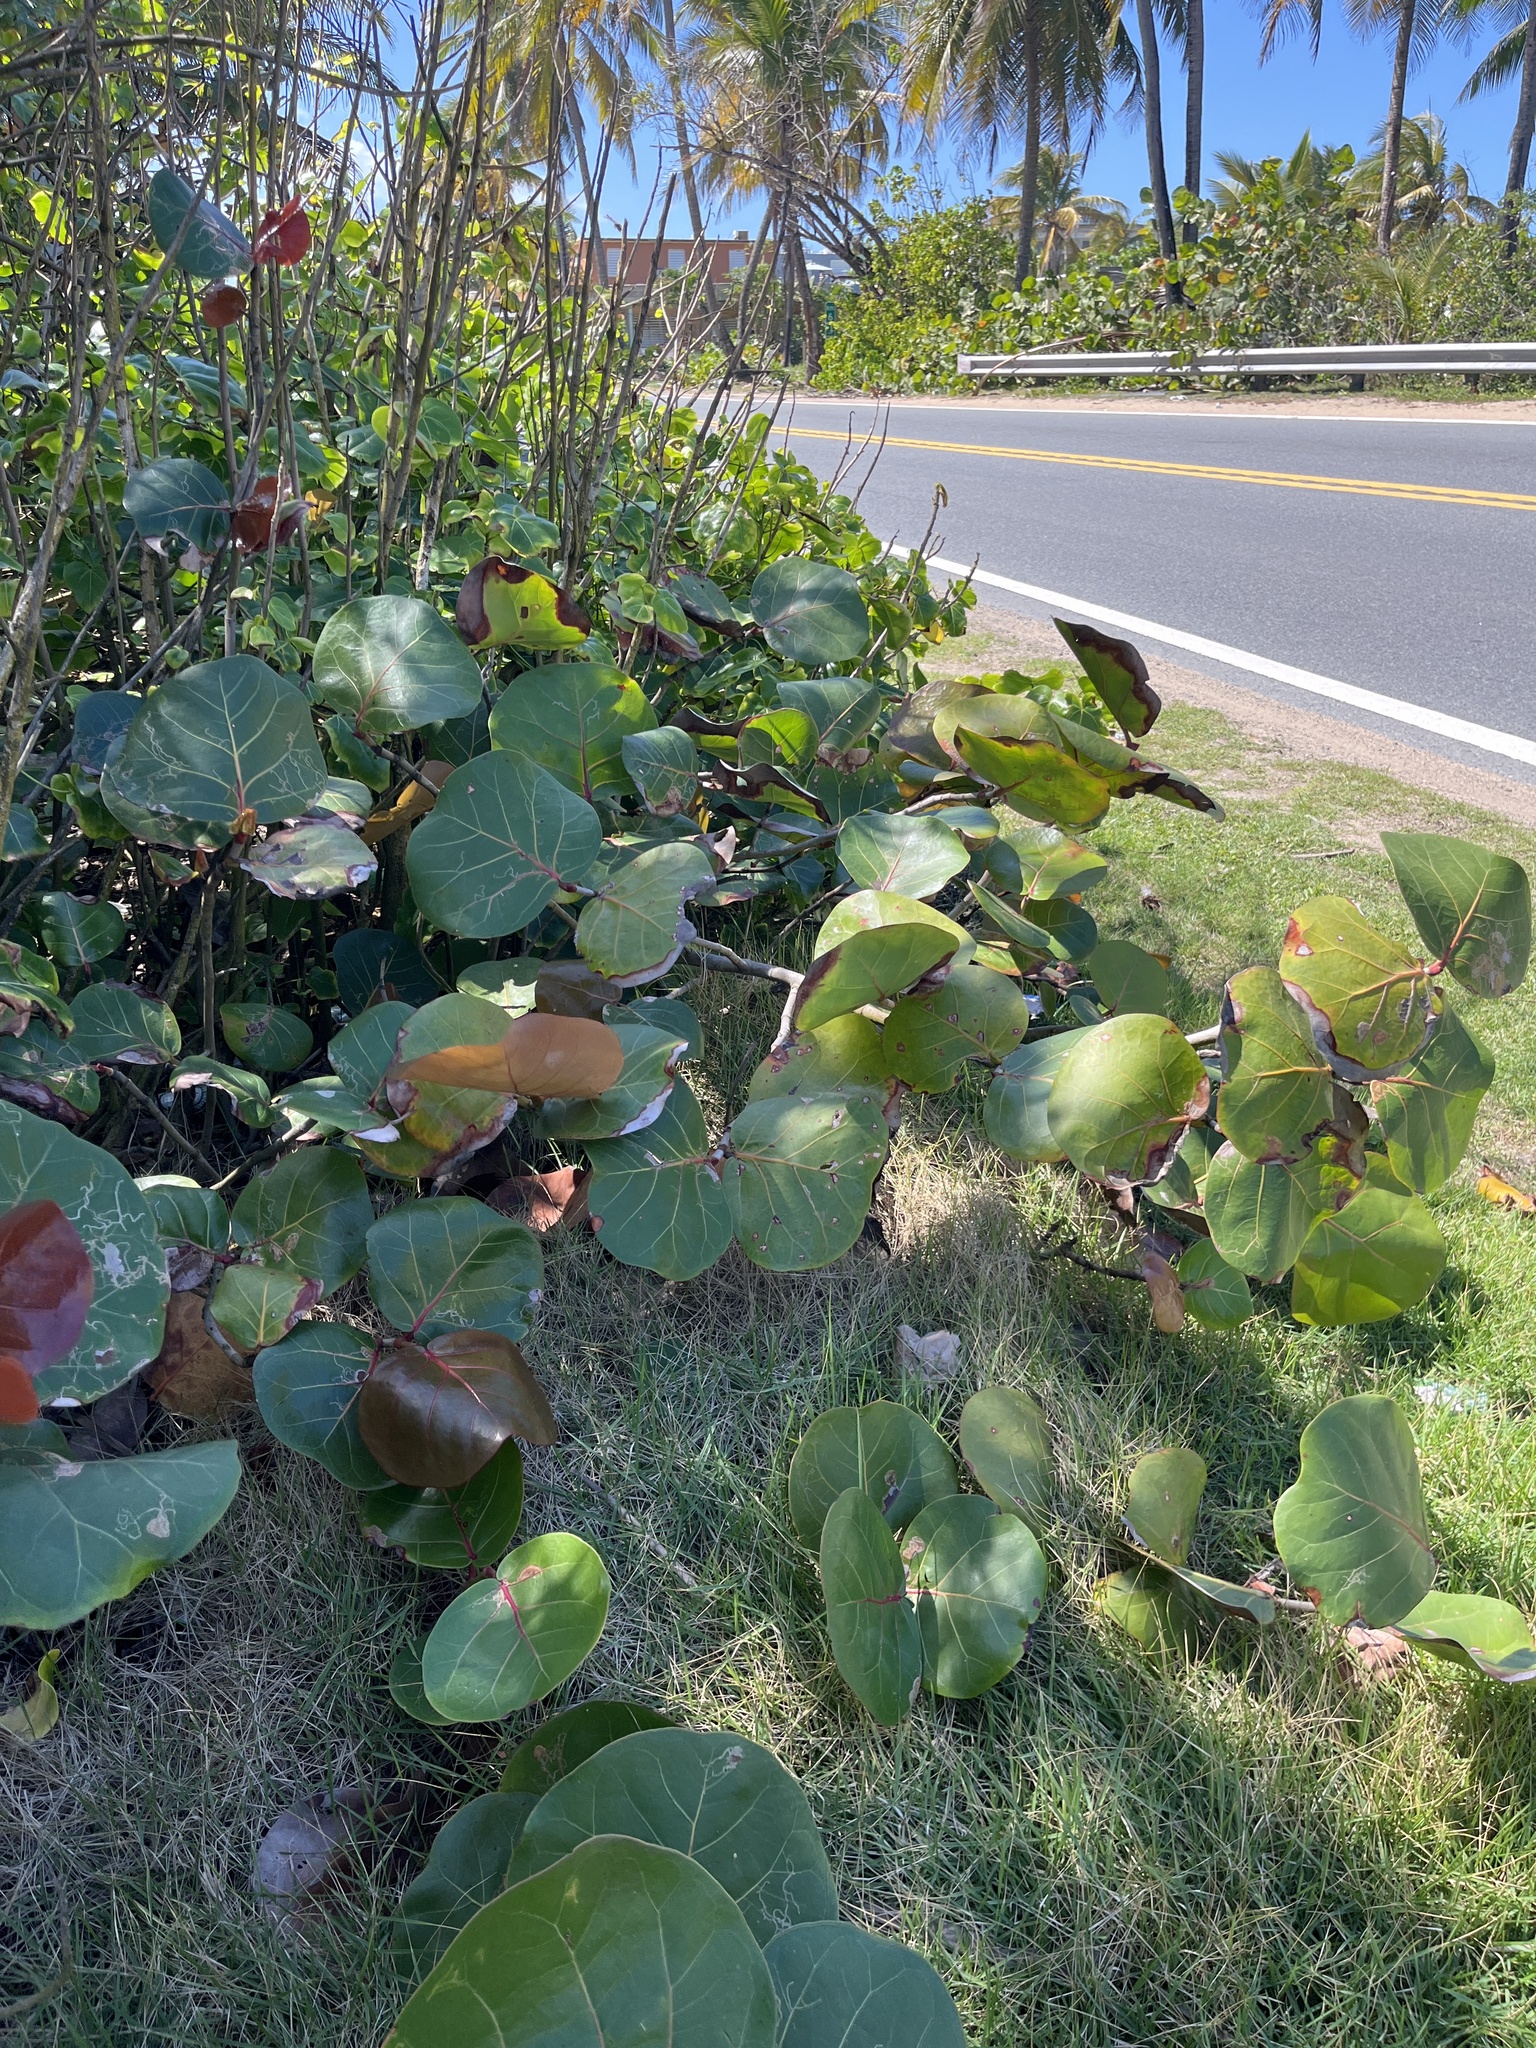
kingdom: Plantae
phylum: Tracheophyta
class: Magnoliopsida
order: Caryophyllales
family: Polygonaceae
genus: Coccoloba
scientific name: Coccoloba uvifera
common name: Seagrape
